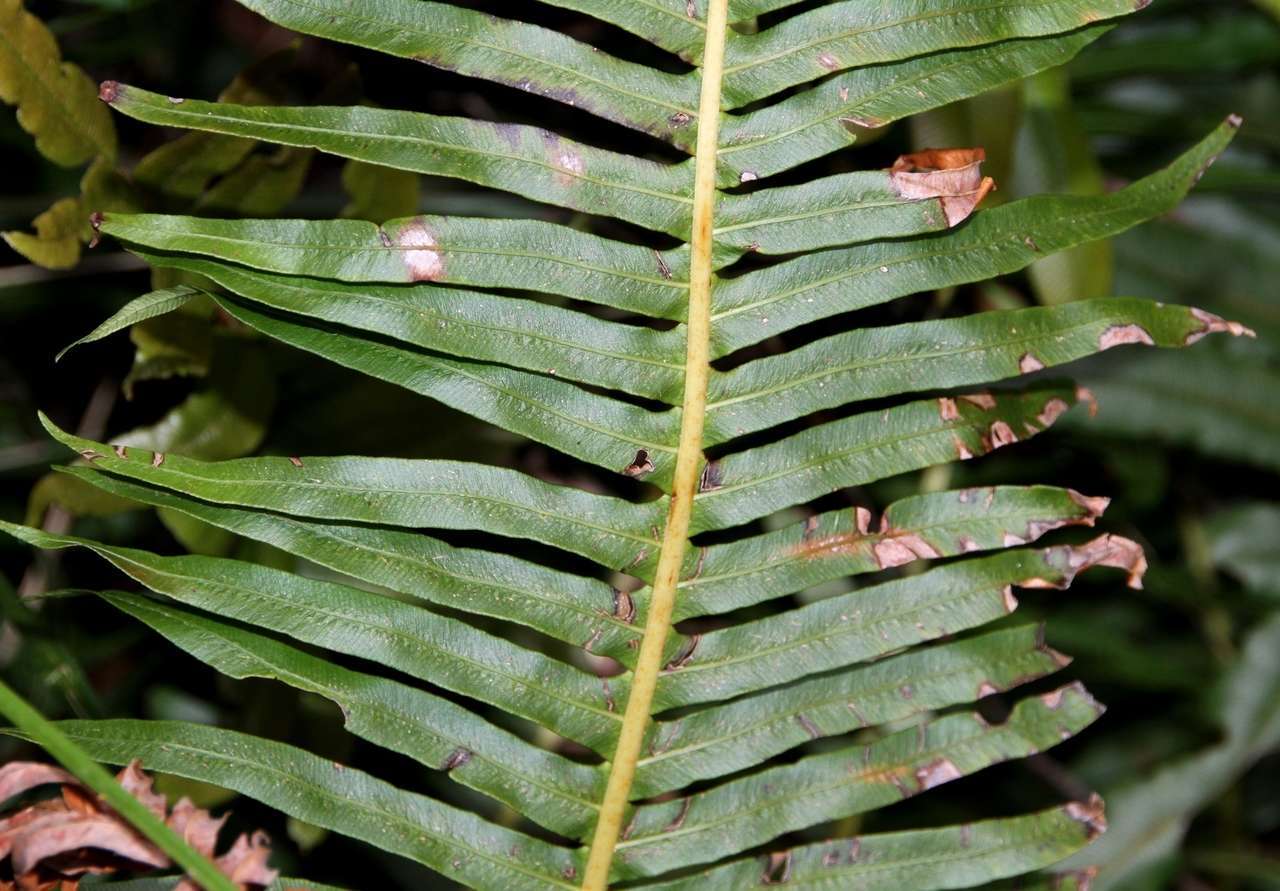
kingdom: Plantae
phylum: Tracheophyta
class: Polypodiopsida
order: Polypodiales
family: Blechnaceae
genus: Lomaria
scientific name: Lomaria nuda
